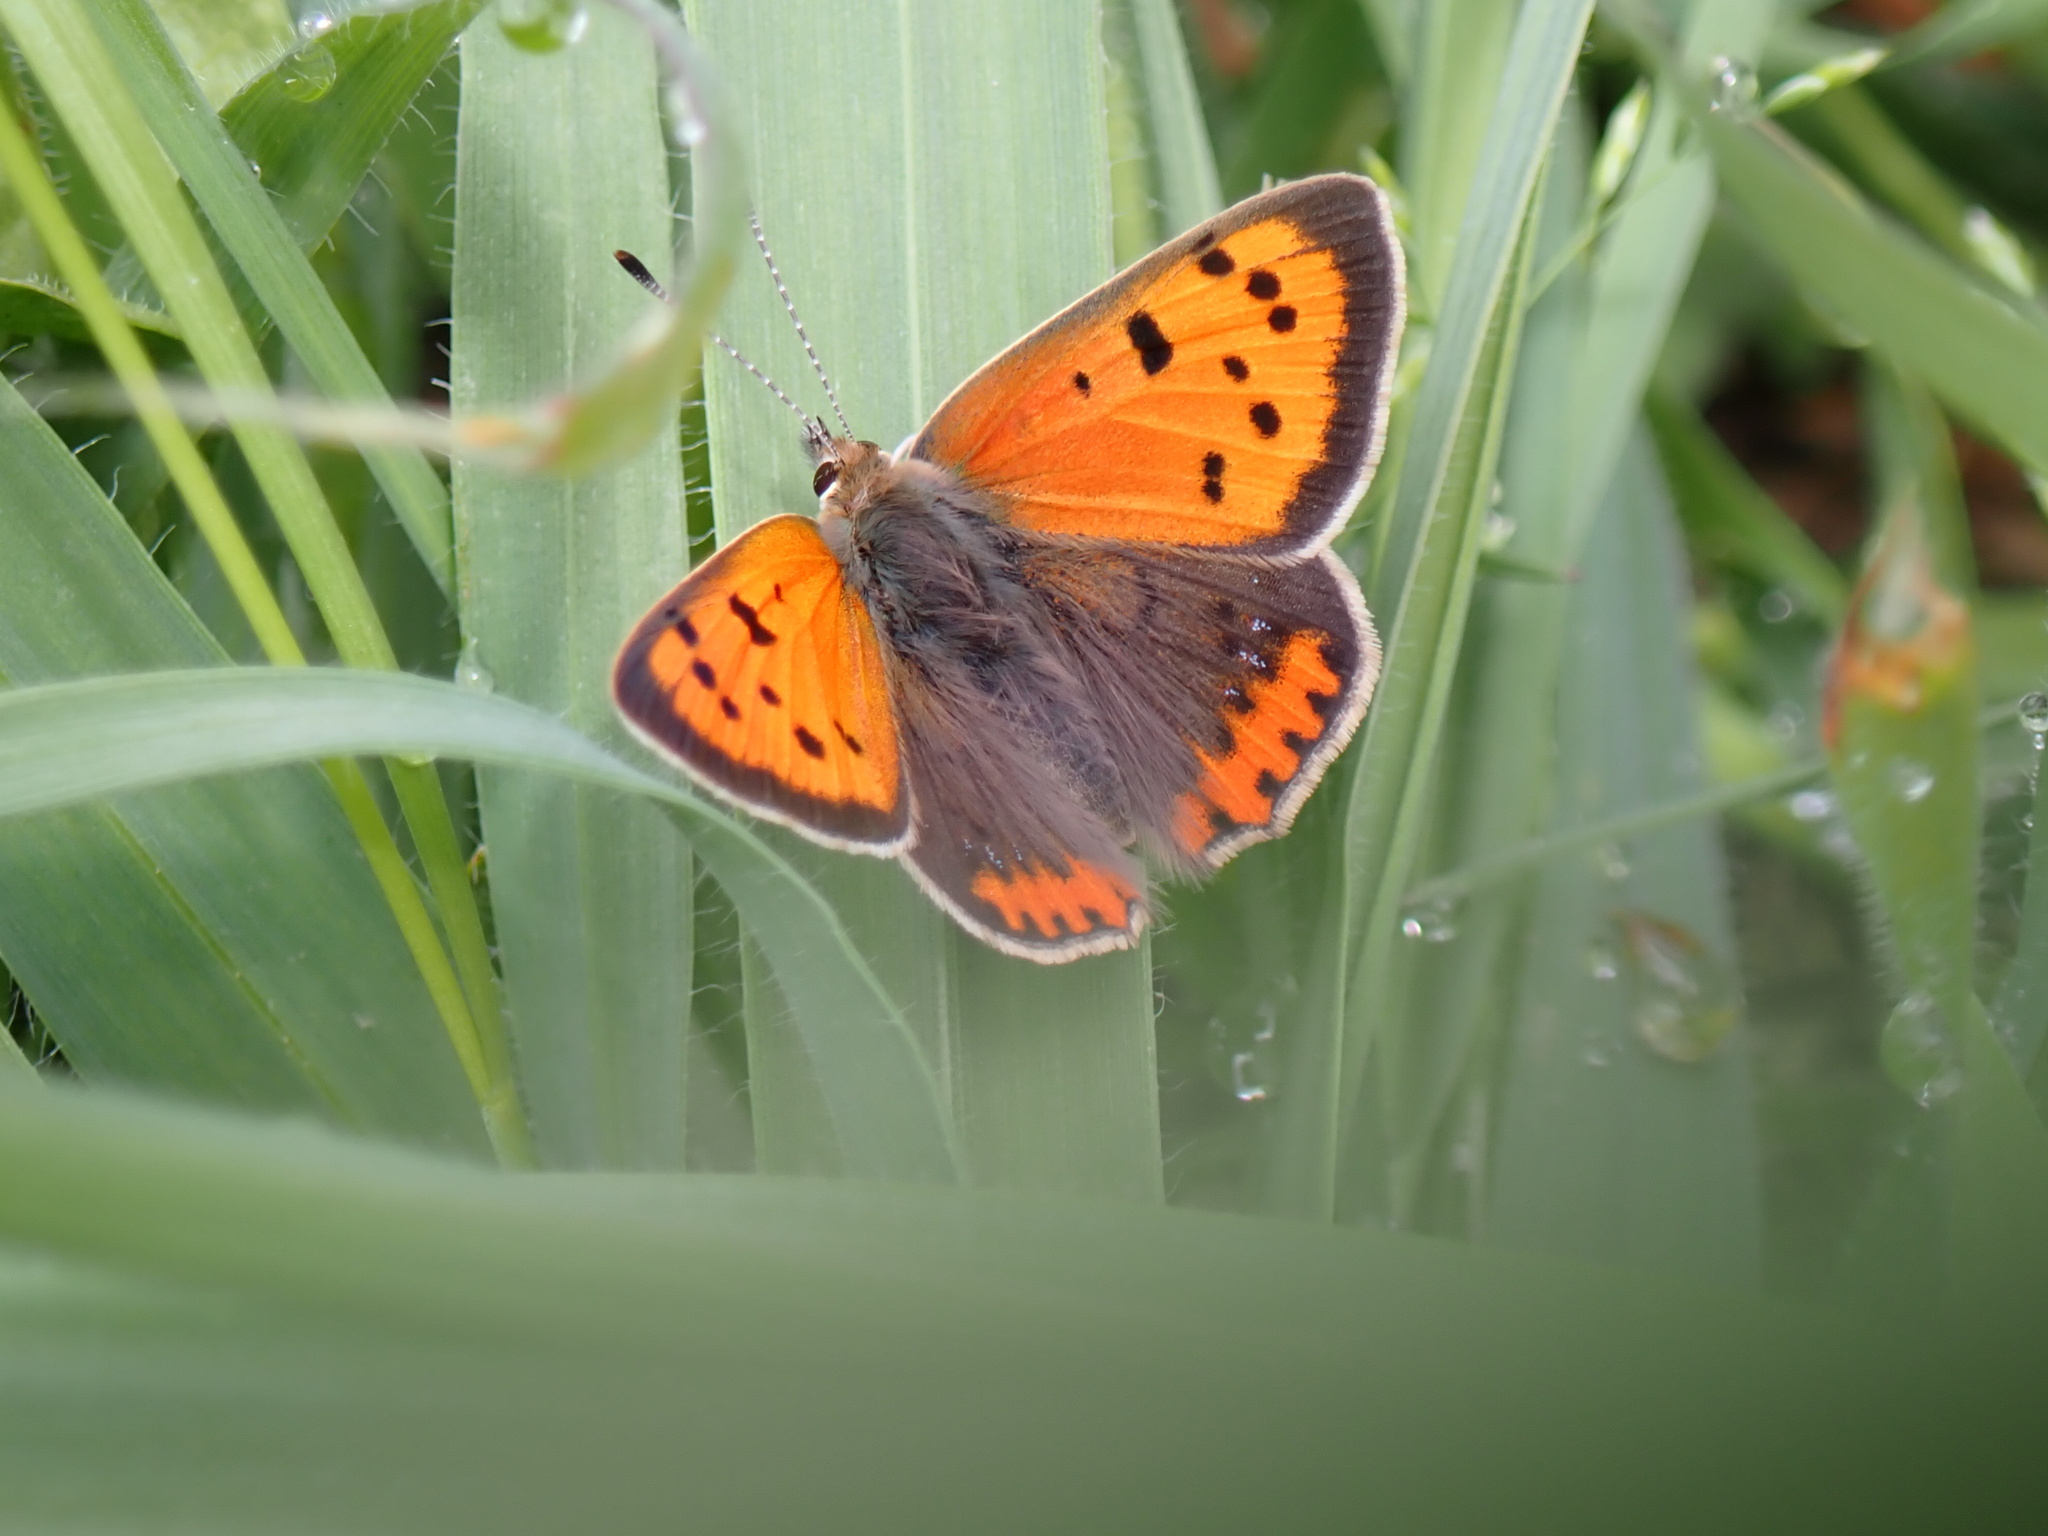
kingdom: Animalia
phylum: Arthropoda
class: Insecta
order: Lepidoptera
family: Lycaenidae
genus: Lycaena
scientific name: Lycaena phlaeas
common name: Small copper
